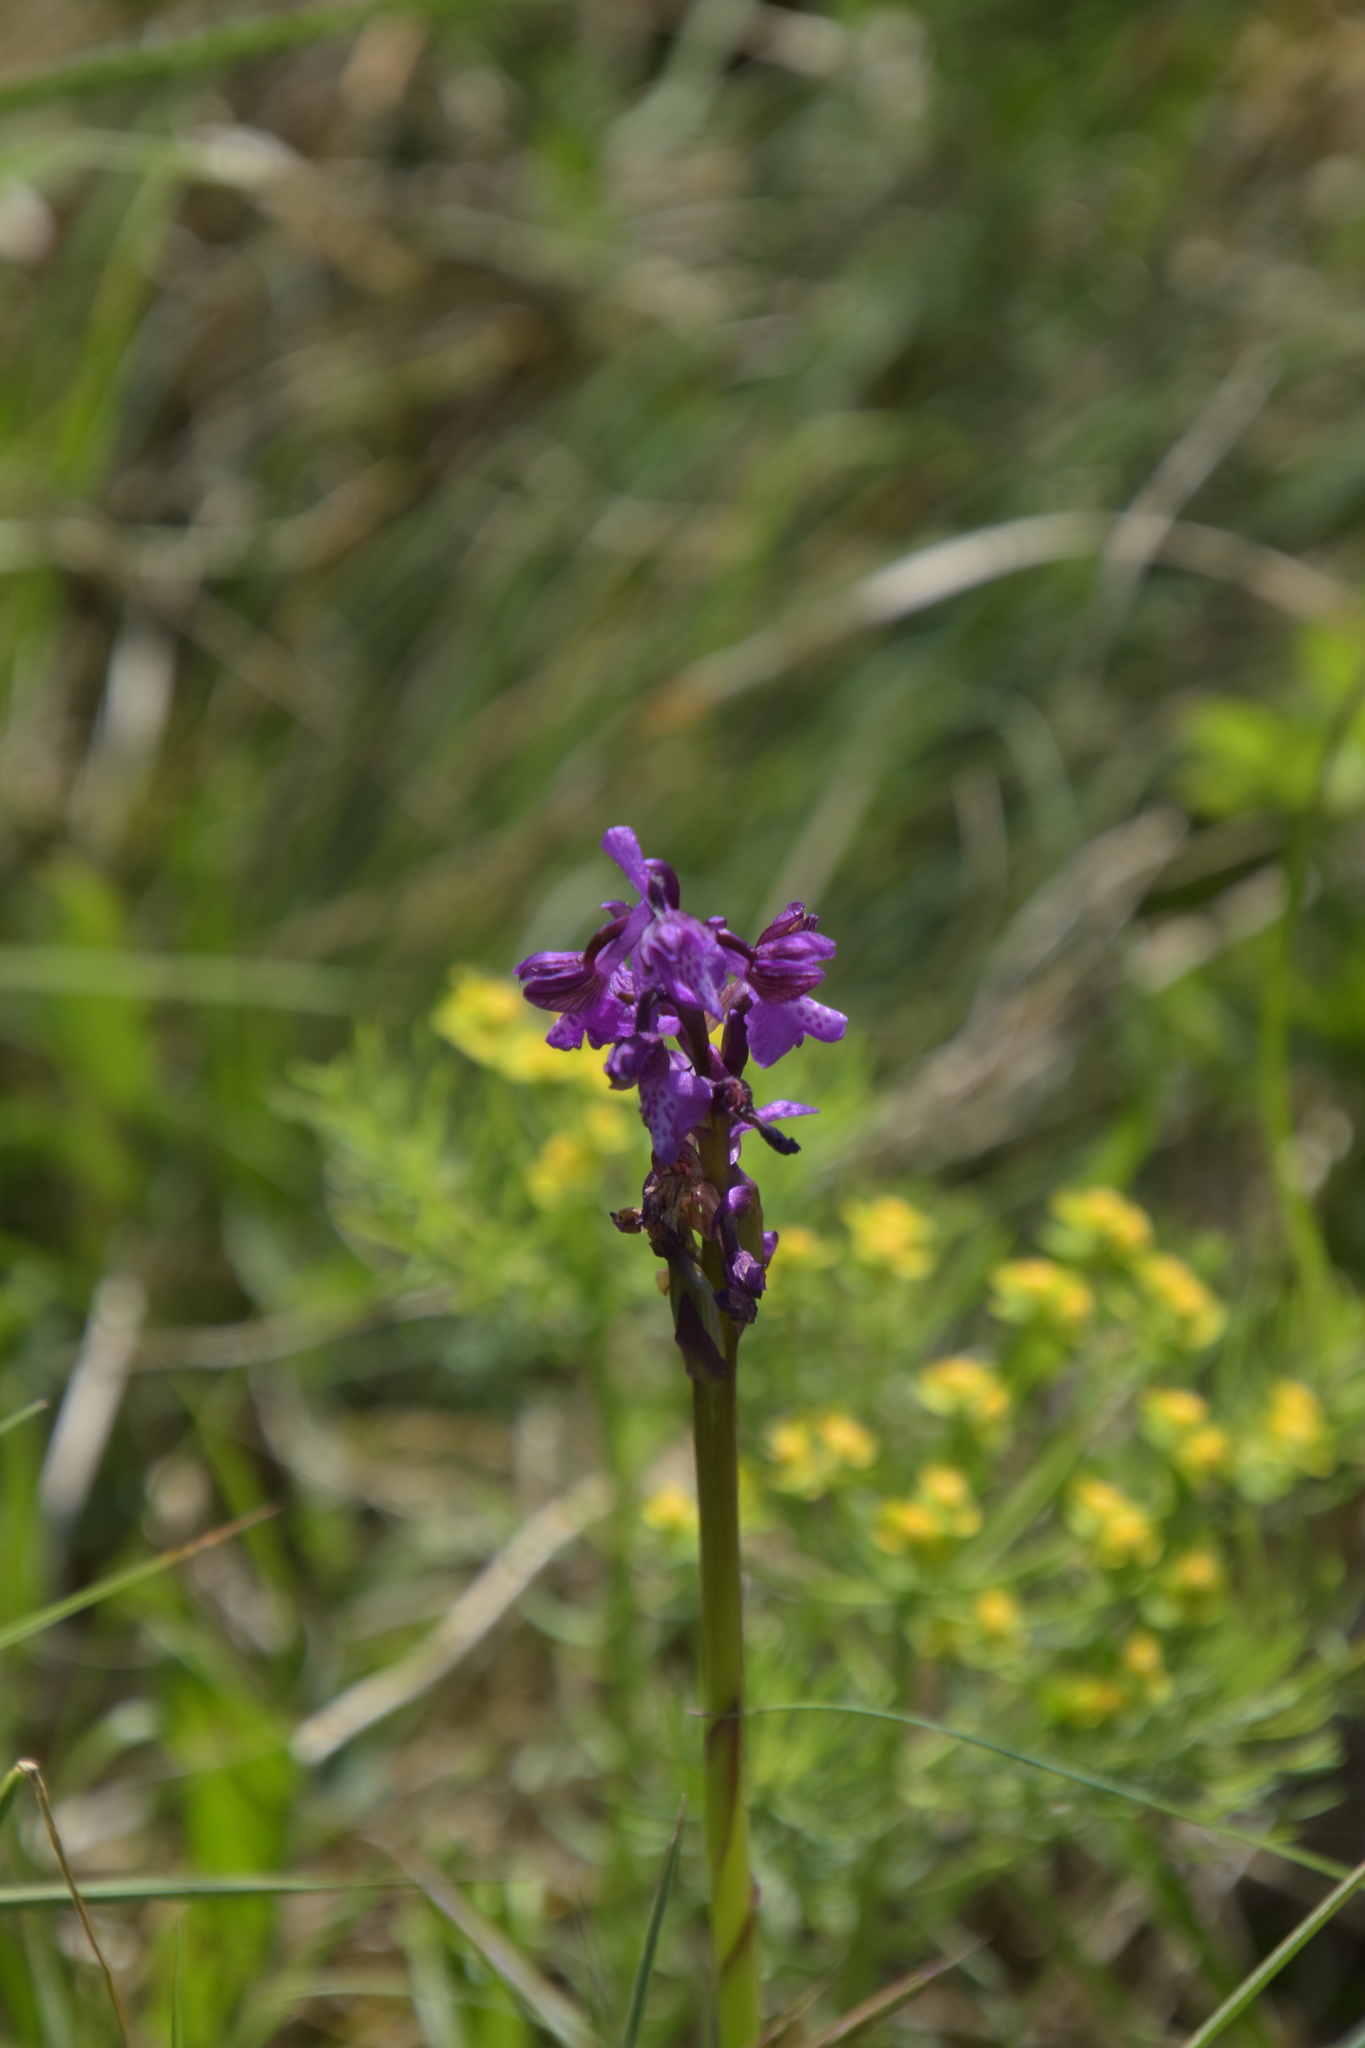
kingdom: Plantae
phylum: Tracheophyta
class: Liliopsida
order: Asparagales
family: Orchidaceae
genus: Anacamptis
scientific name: Anacamptis morio
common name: Green-winged orchid
